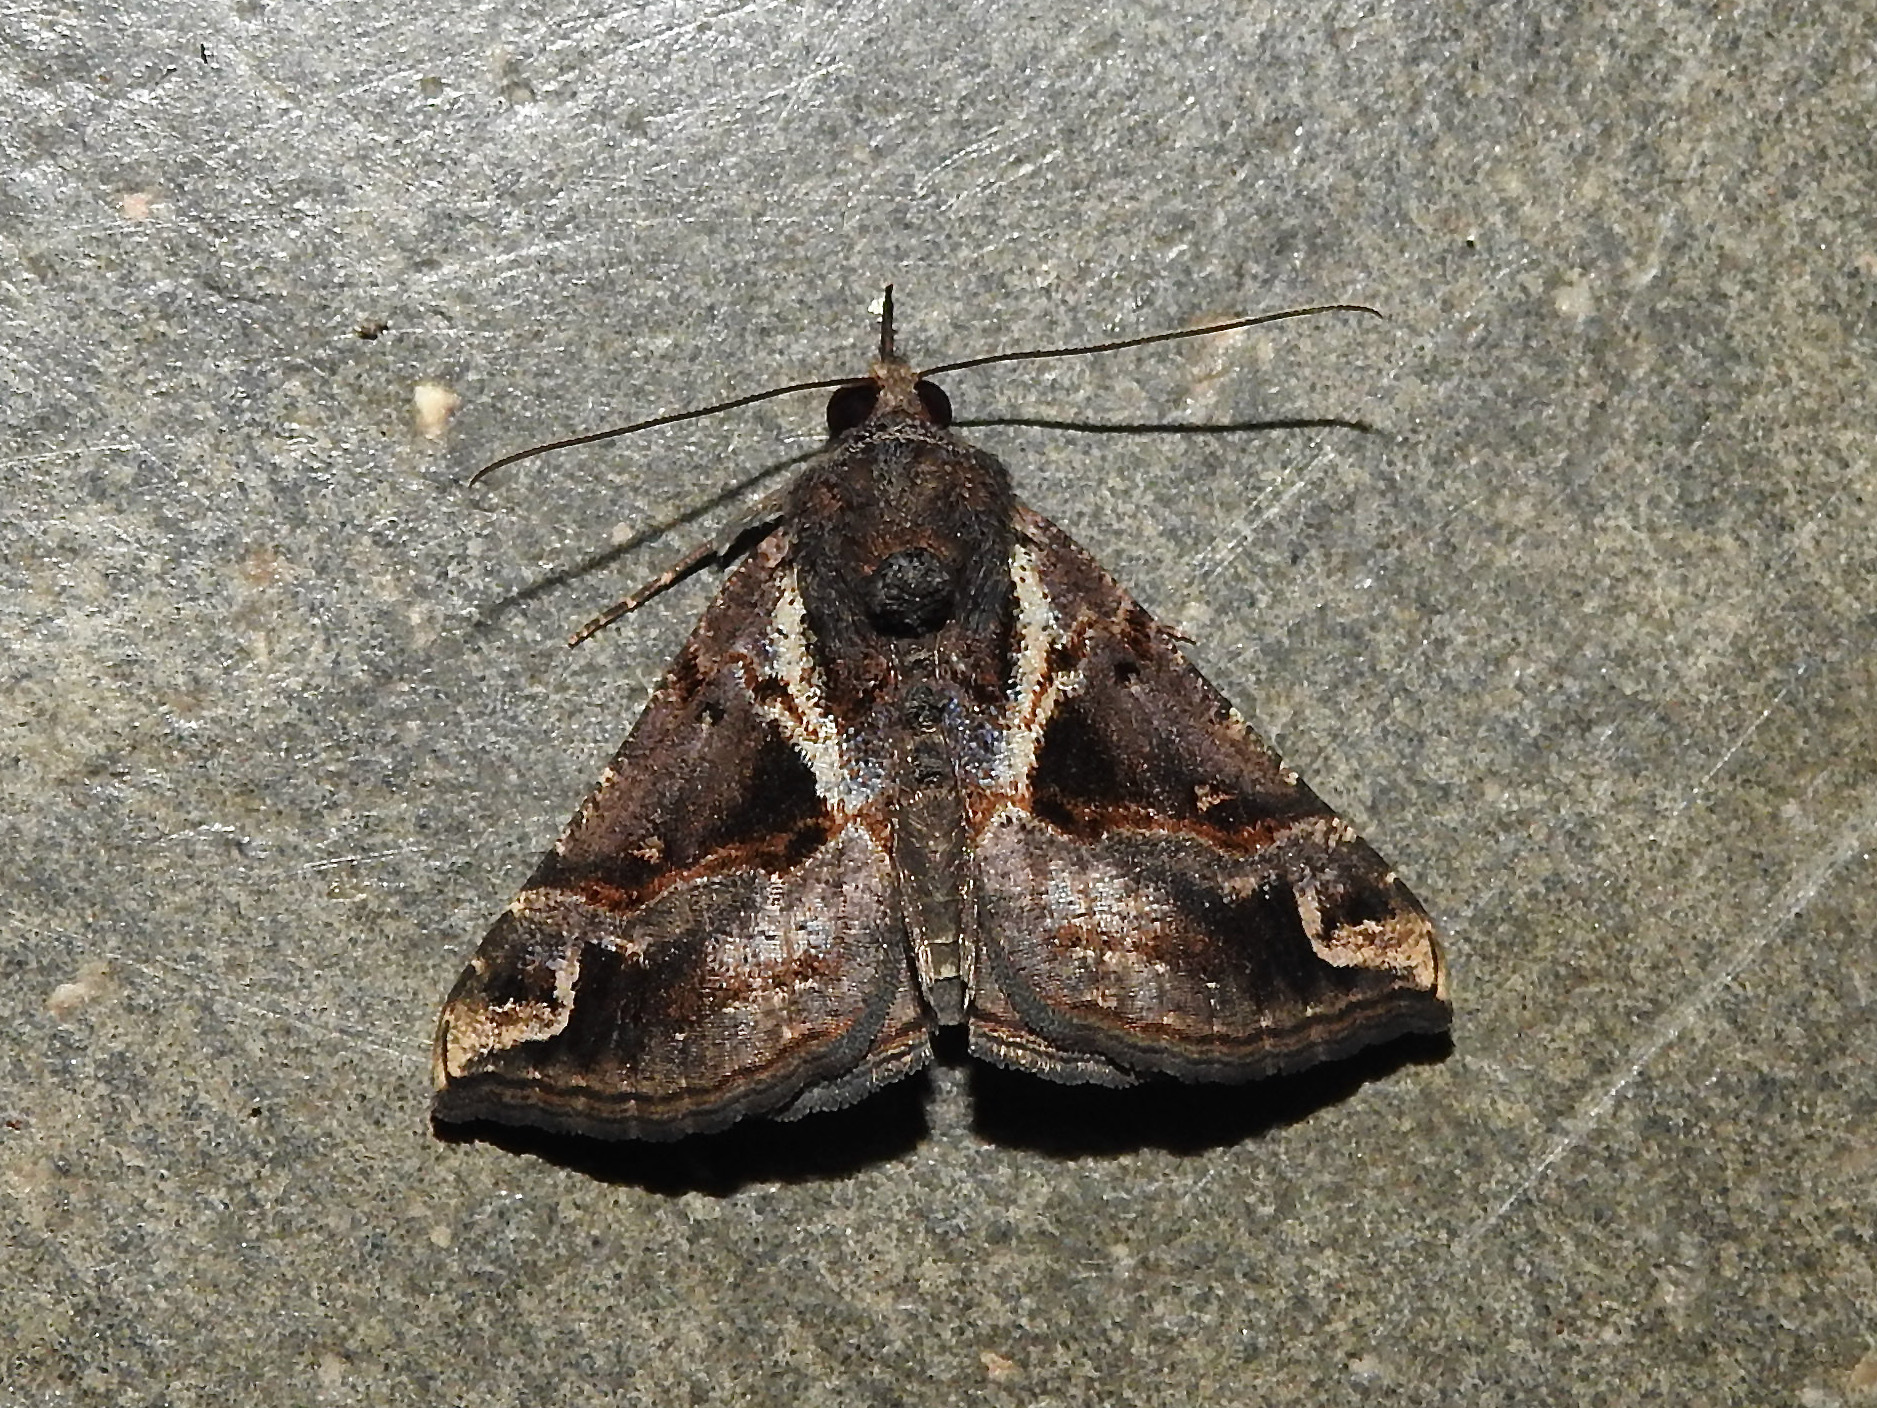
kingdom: Animalia
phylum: Arthropoda
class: Insecta
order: Lepidoptera
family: Erebidae
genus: Hypena
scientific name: Hypena commixtalis
